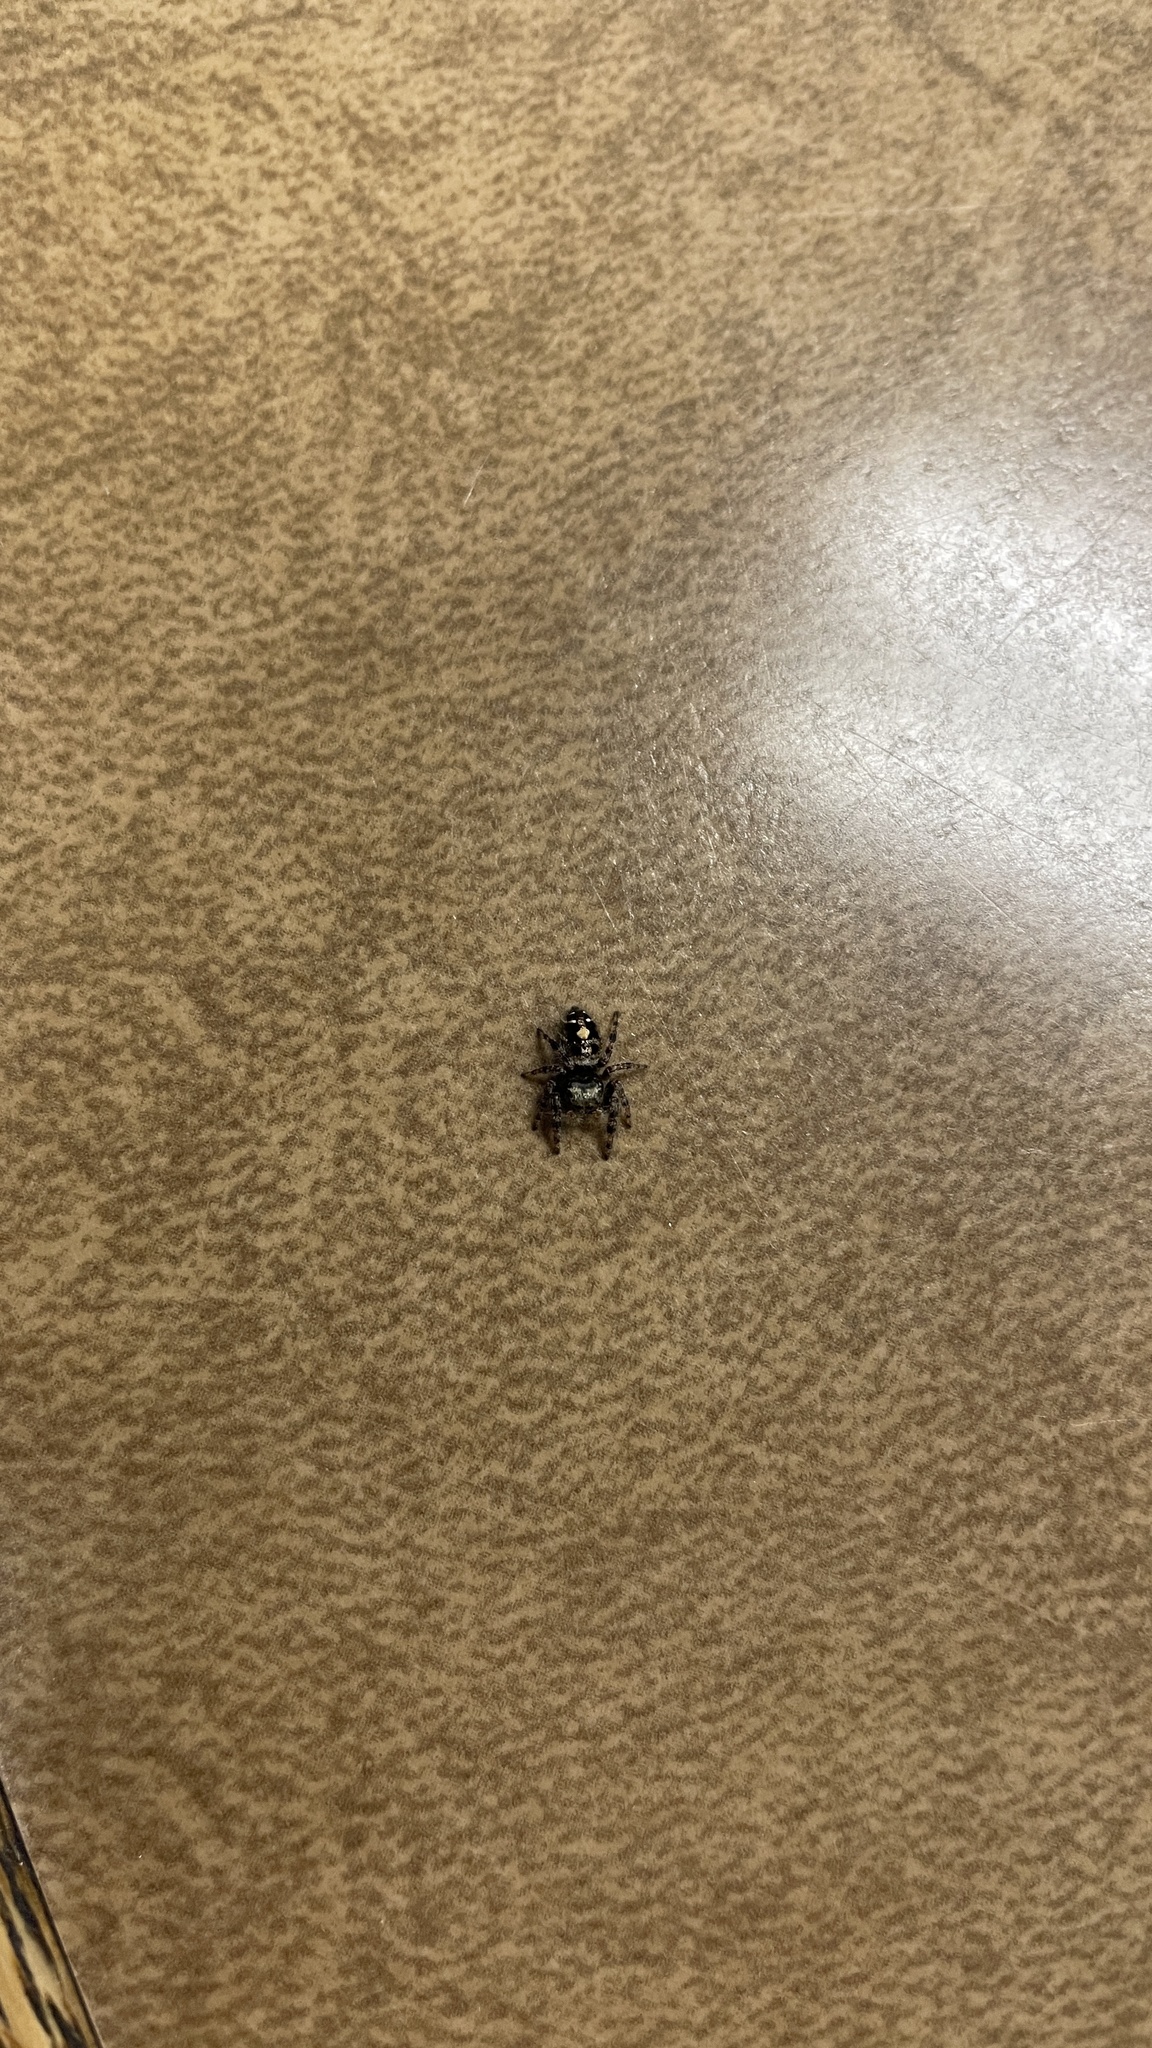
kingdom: Animalia
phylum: Arthropoda
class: Arachnida
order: Araneae
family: Salticidae
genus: Phidippus
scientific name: Phidippus audax
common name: Bold jumper
